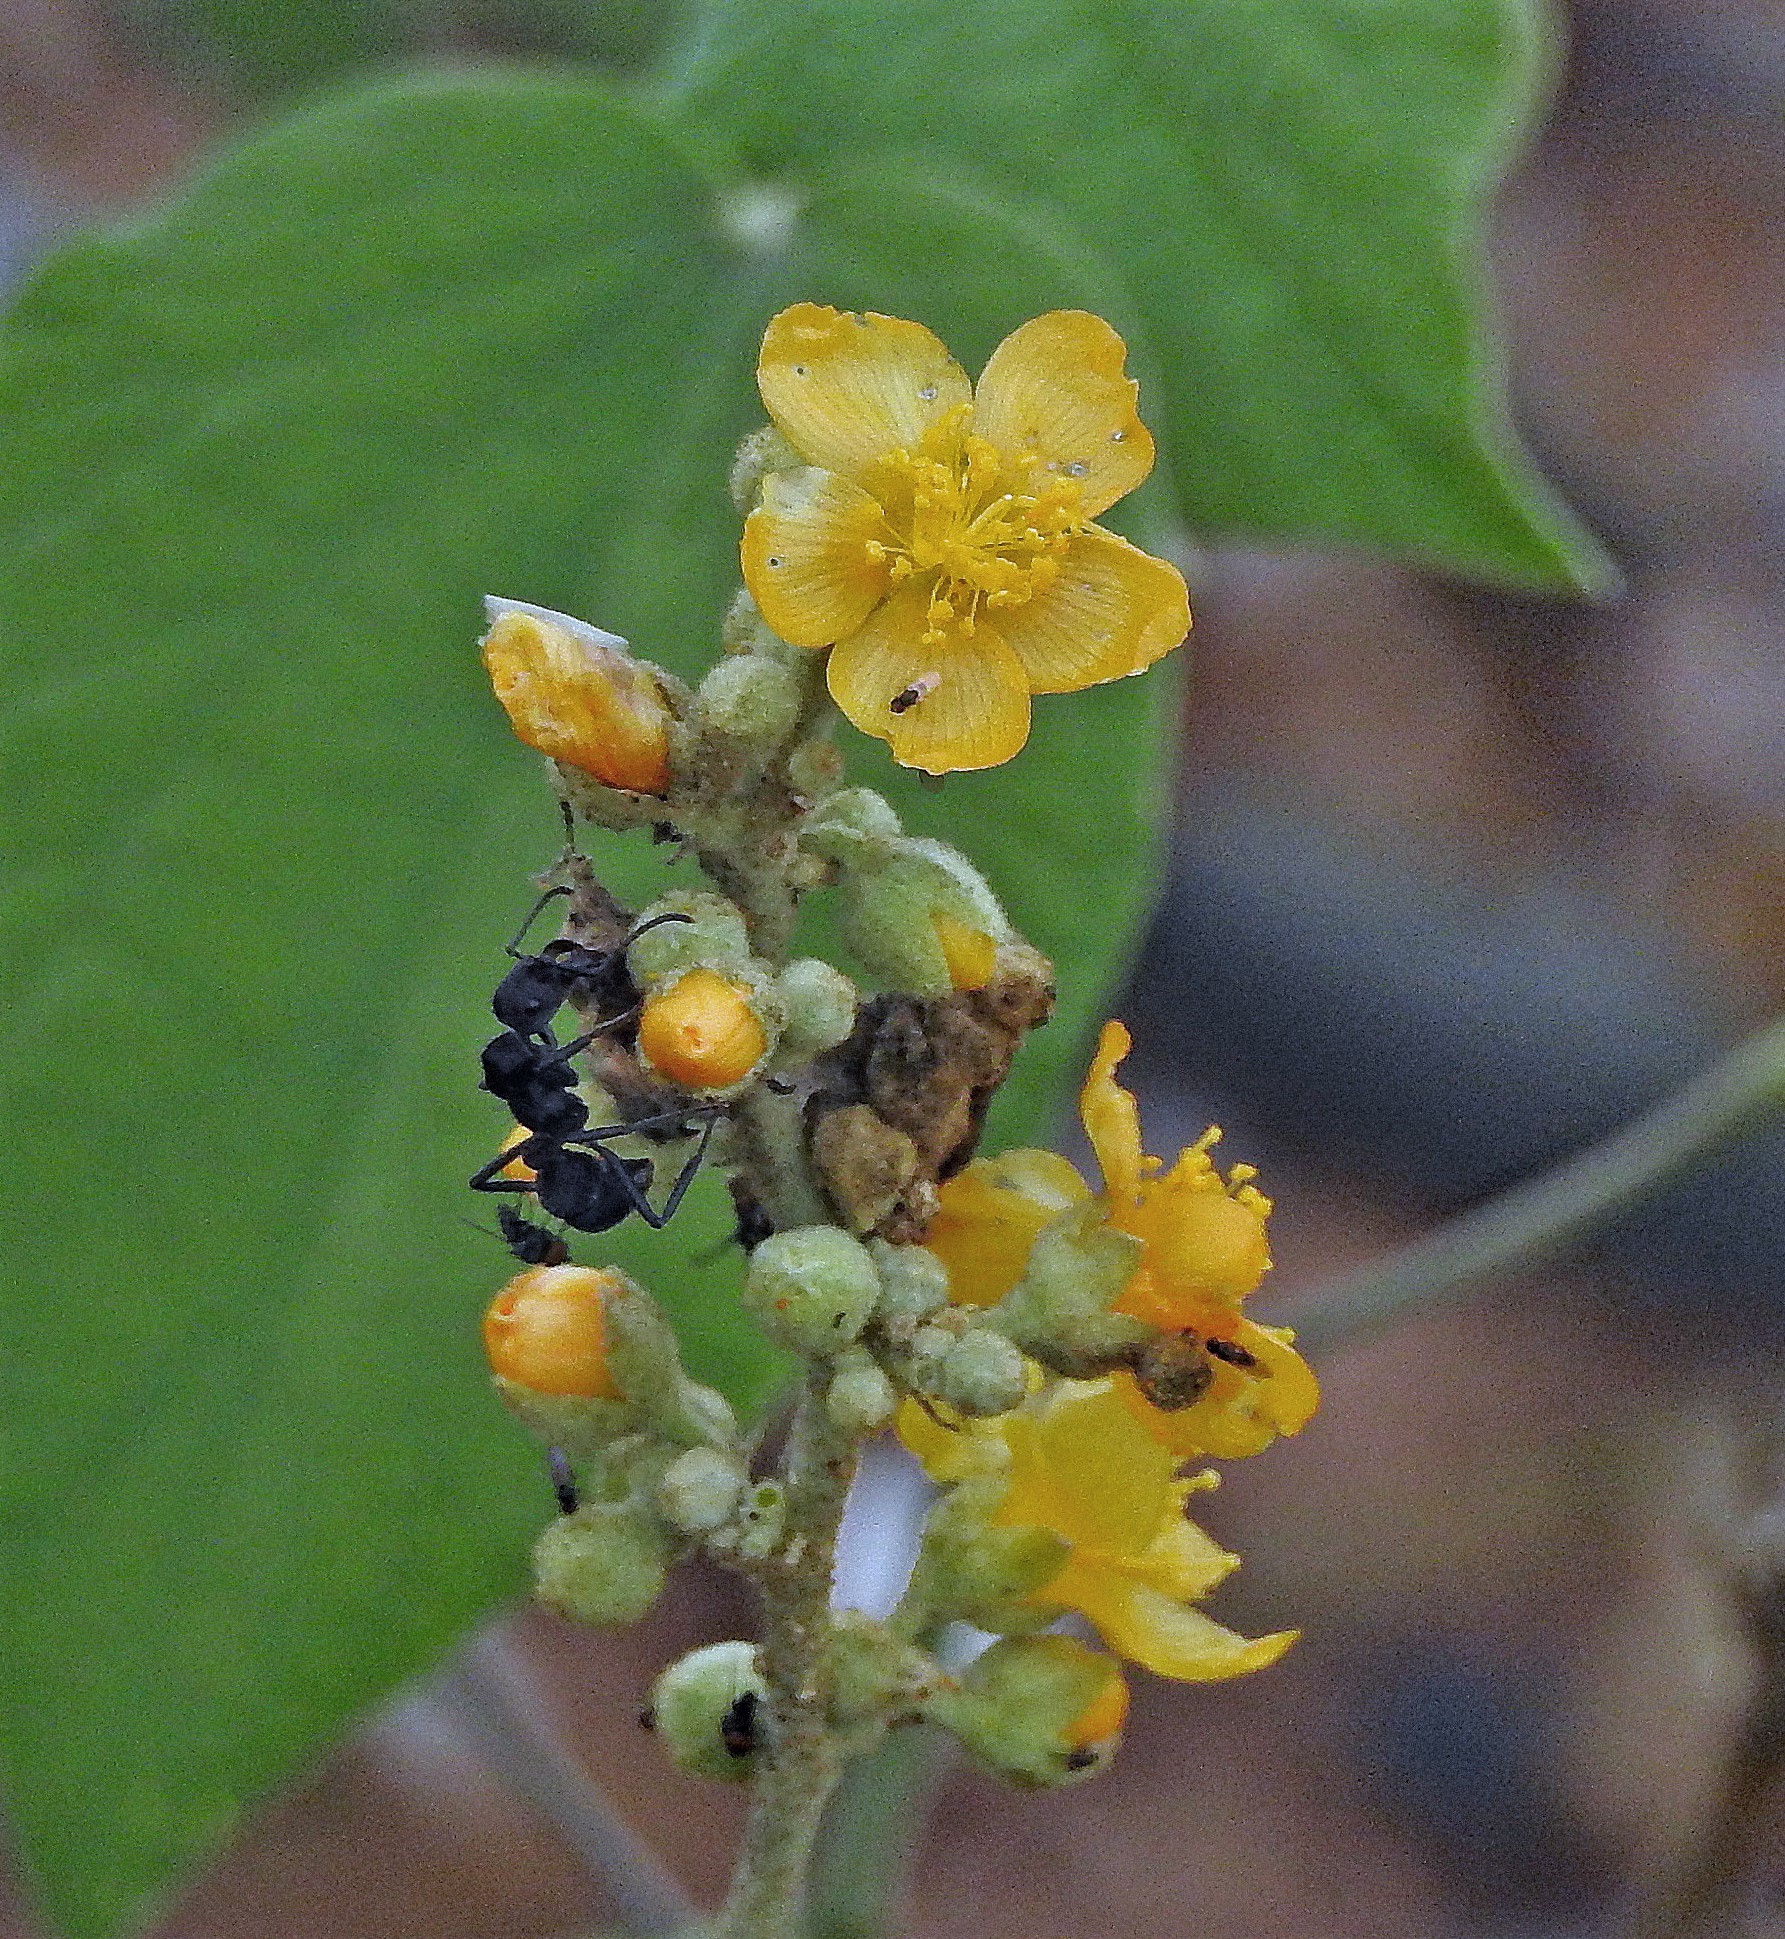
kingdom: Plantae
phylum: Tracheophyta
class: Magnoliopsida
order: Malvales
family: Malvaceae
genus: Wissadula
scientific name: Wissadula densiflora
